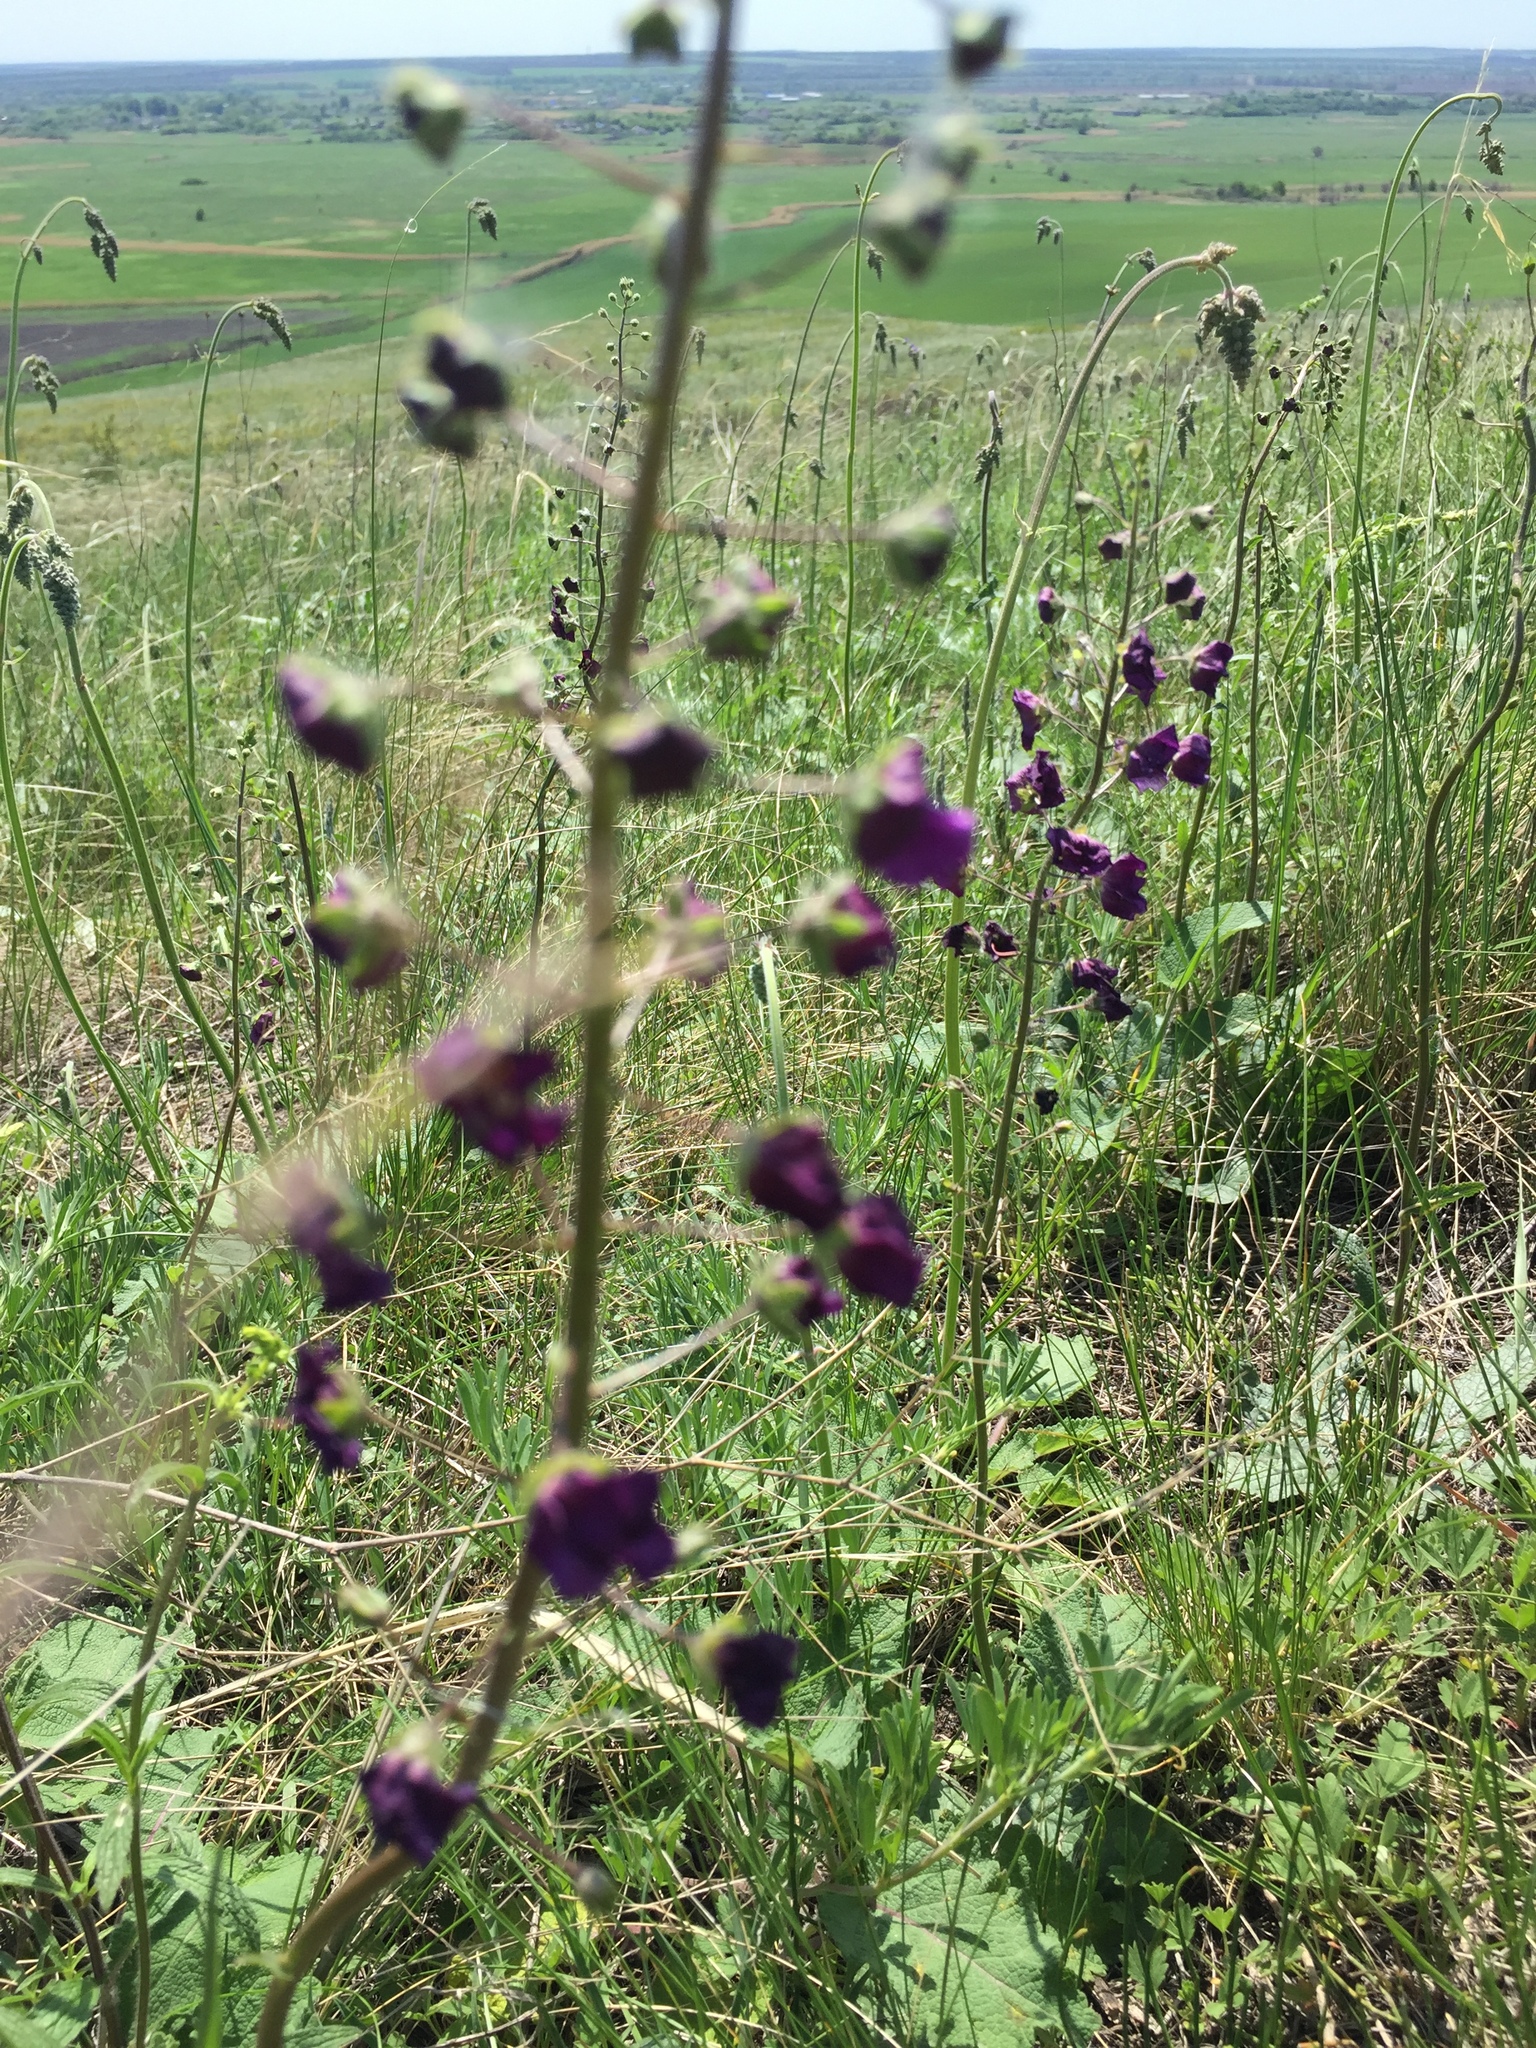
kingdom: Plantae
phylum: Tracheophyta
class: Magnoliopsida
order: Lamiales
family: Scrophulariaceae
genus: Verbascum
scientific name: Verbascum phoeniceum
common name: Purple mullein
